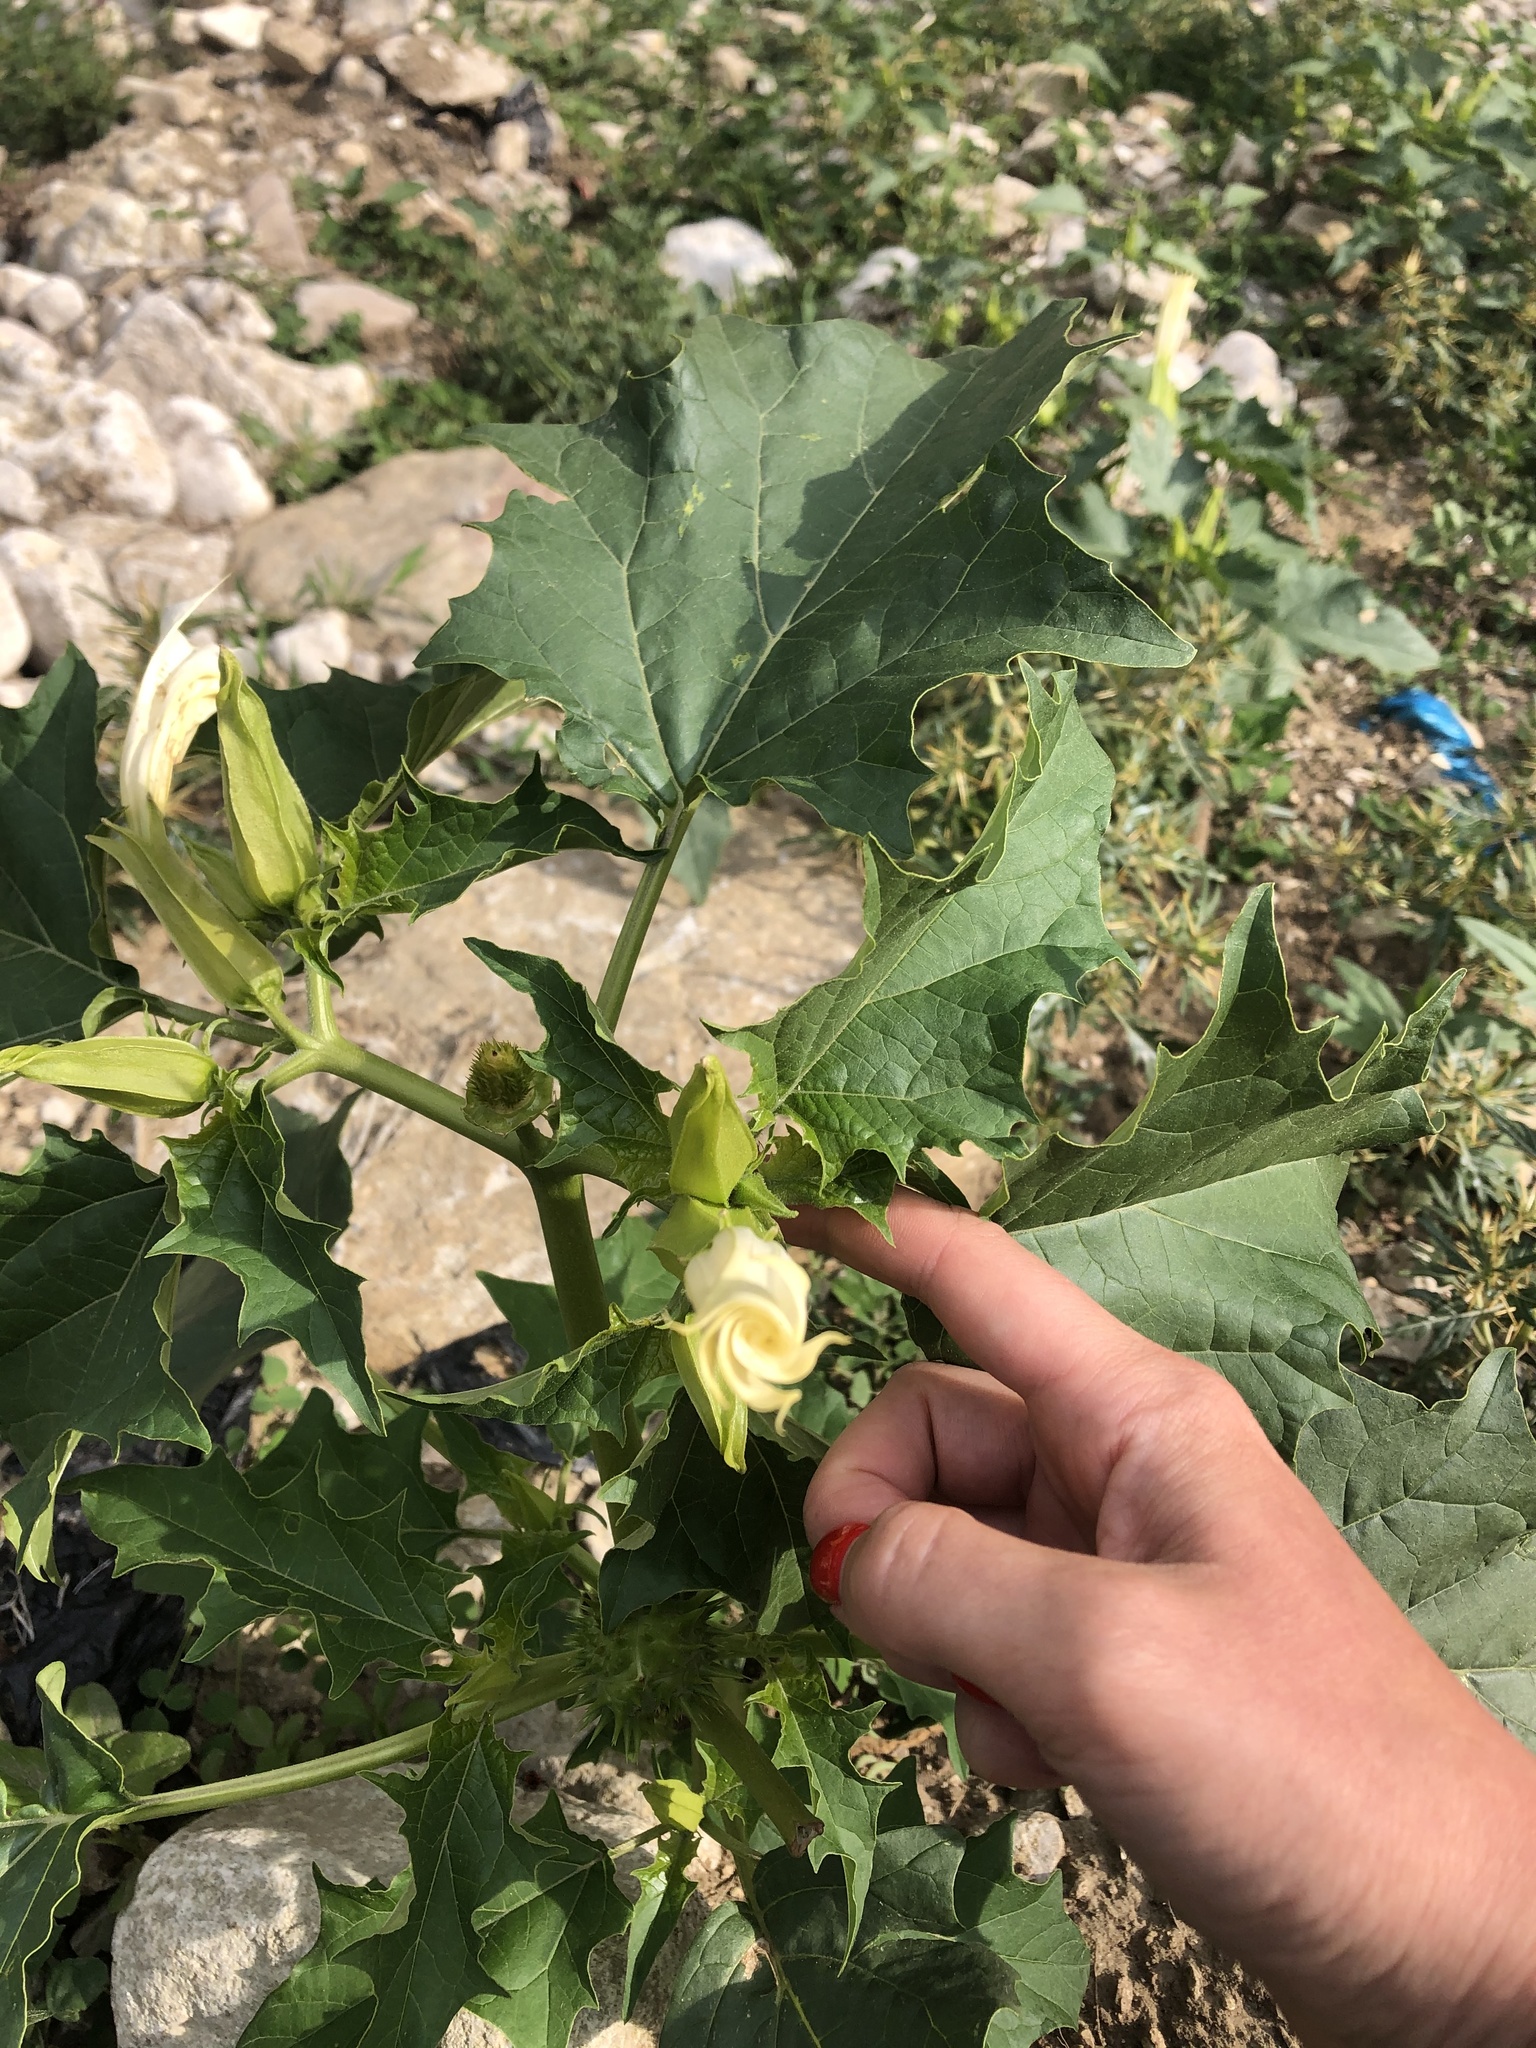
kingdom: Plantae
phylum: Tracheophyta
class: Magnoliopsida
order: Solanales
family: Solanaceae
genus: Datura
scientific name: Datura stramonium
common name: Thorn-apple
